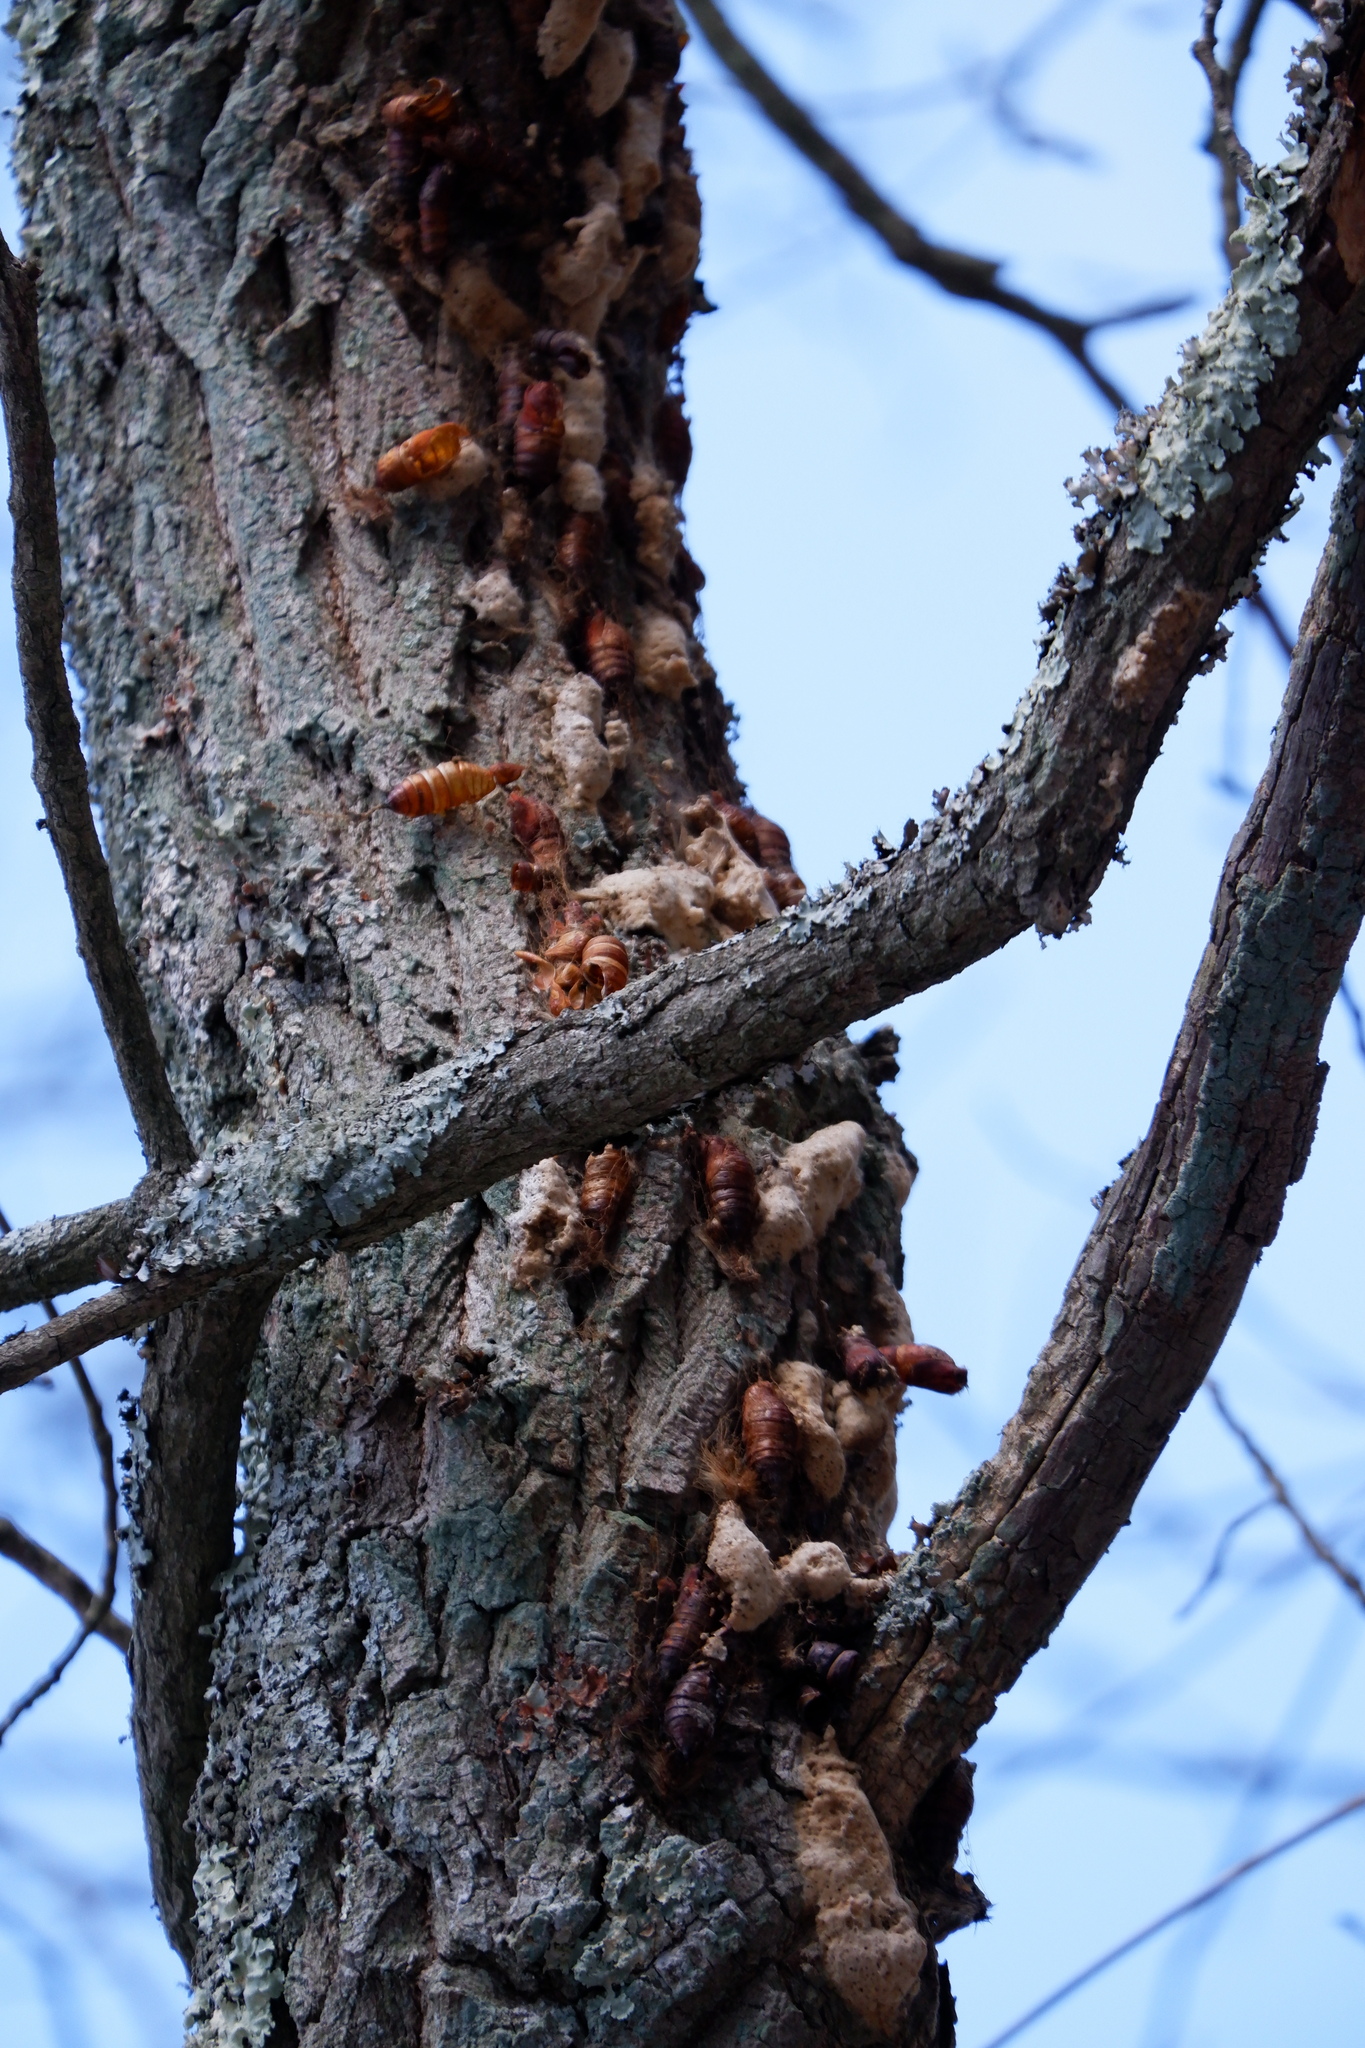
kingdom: Animalia
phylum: Arthropoda
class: Insecta
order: Lepidoptera
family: Erebidae
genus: Lymantria
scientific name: Lymantria dispar
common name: Gypsy moth
